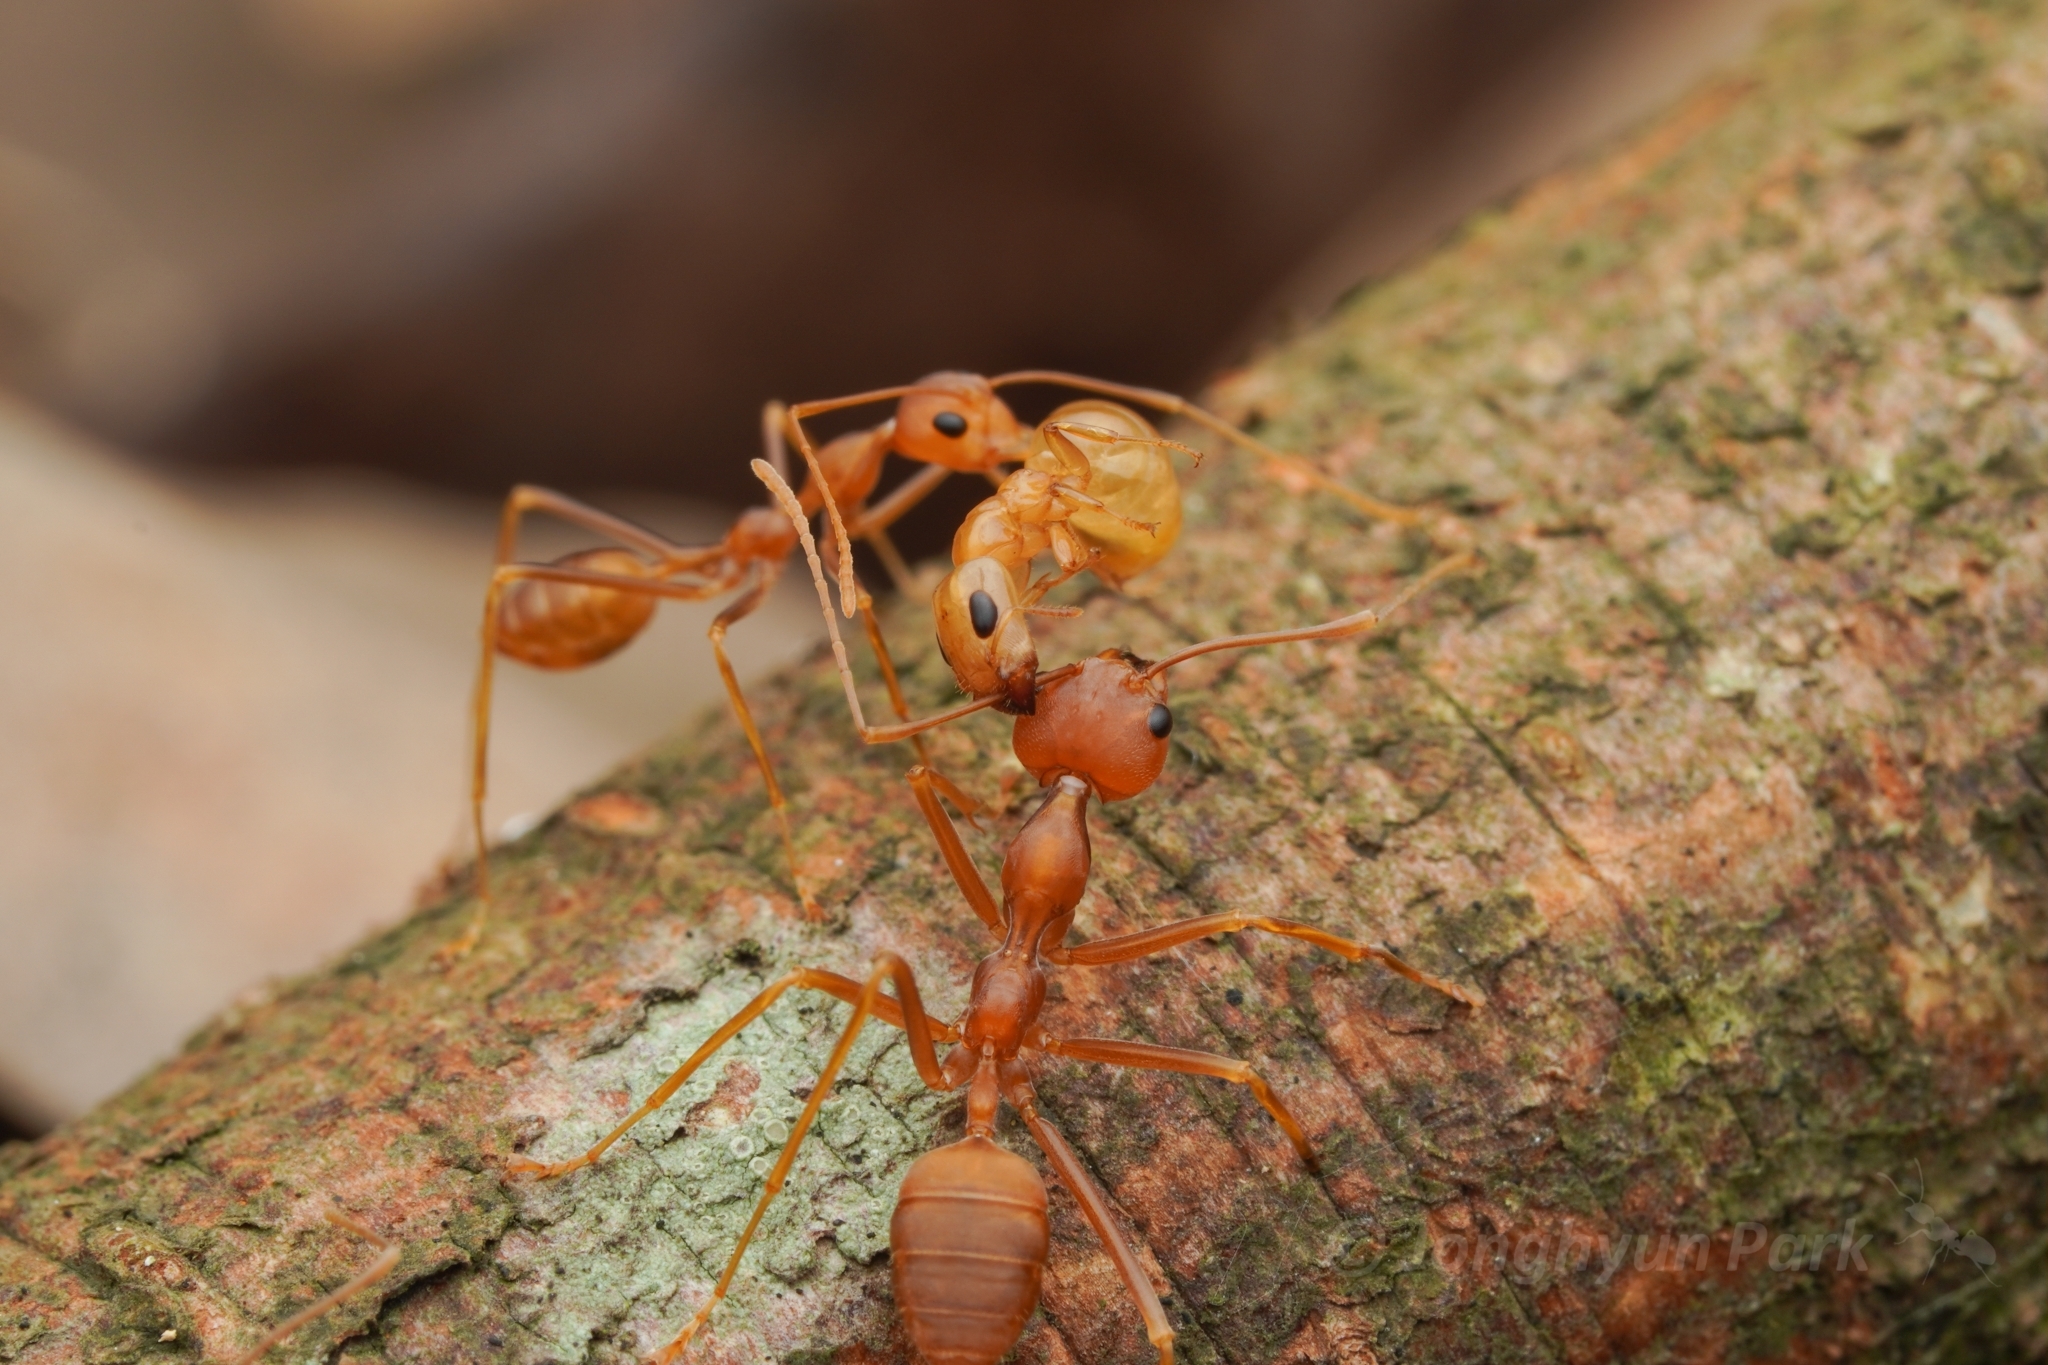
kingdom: Animalia
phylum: Arthropoda
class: Insecta
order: Hymenoptera
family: Formicidae
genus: Oecophylla
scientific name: Oecophylla smaragdina
